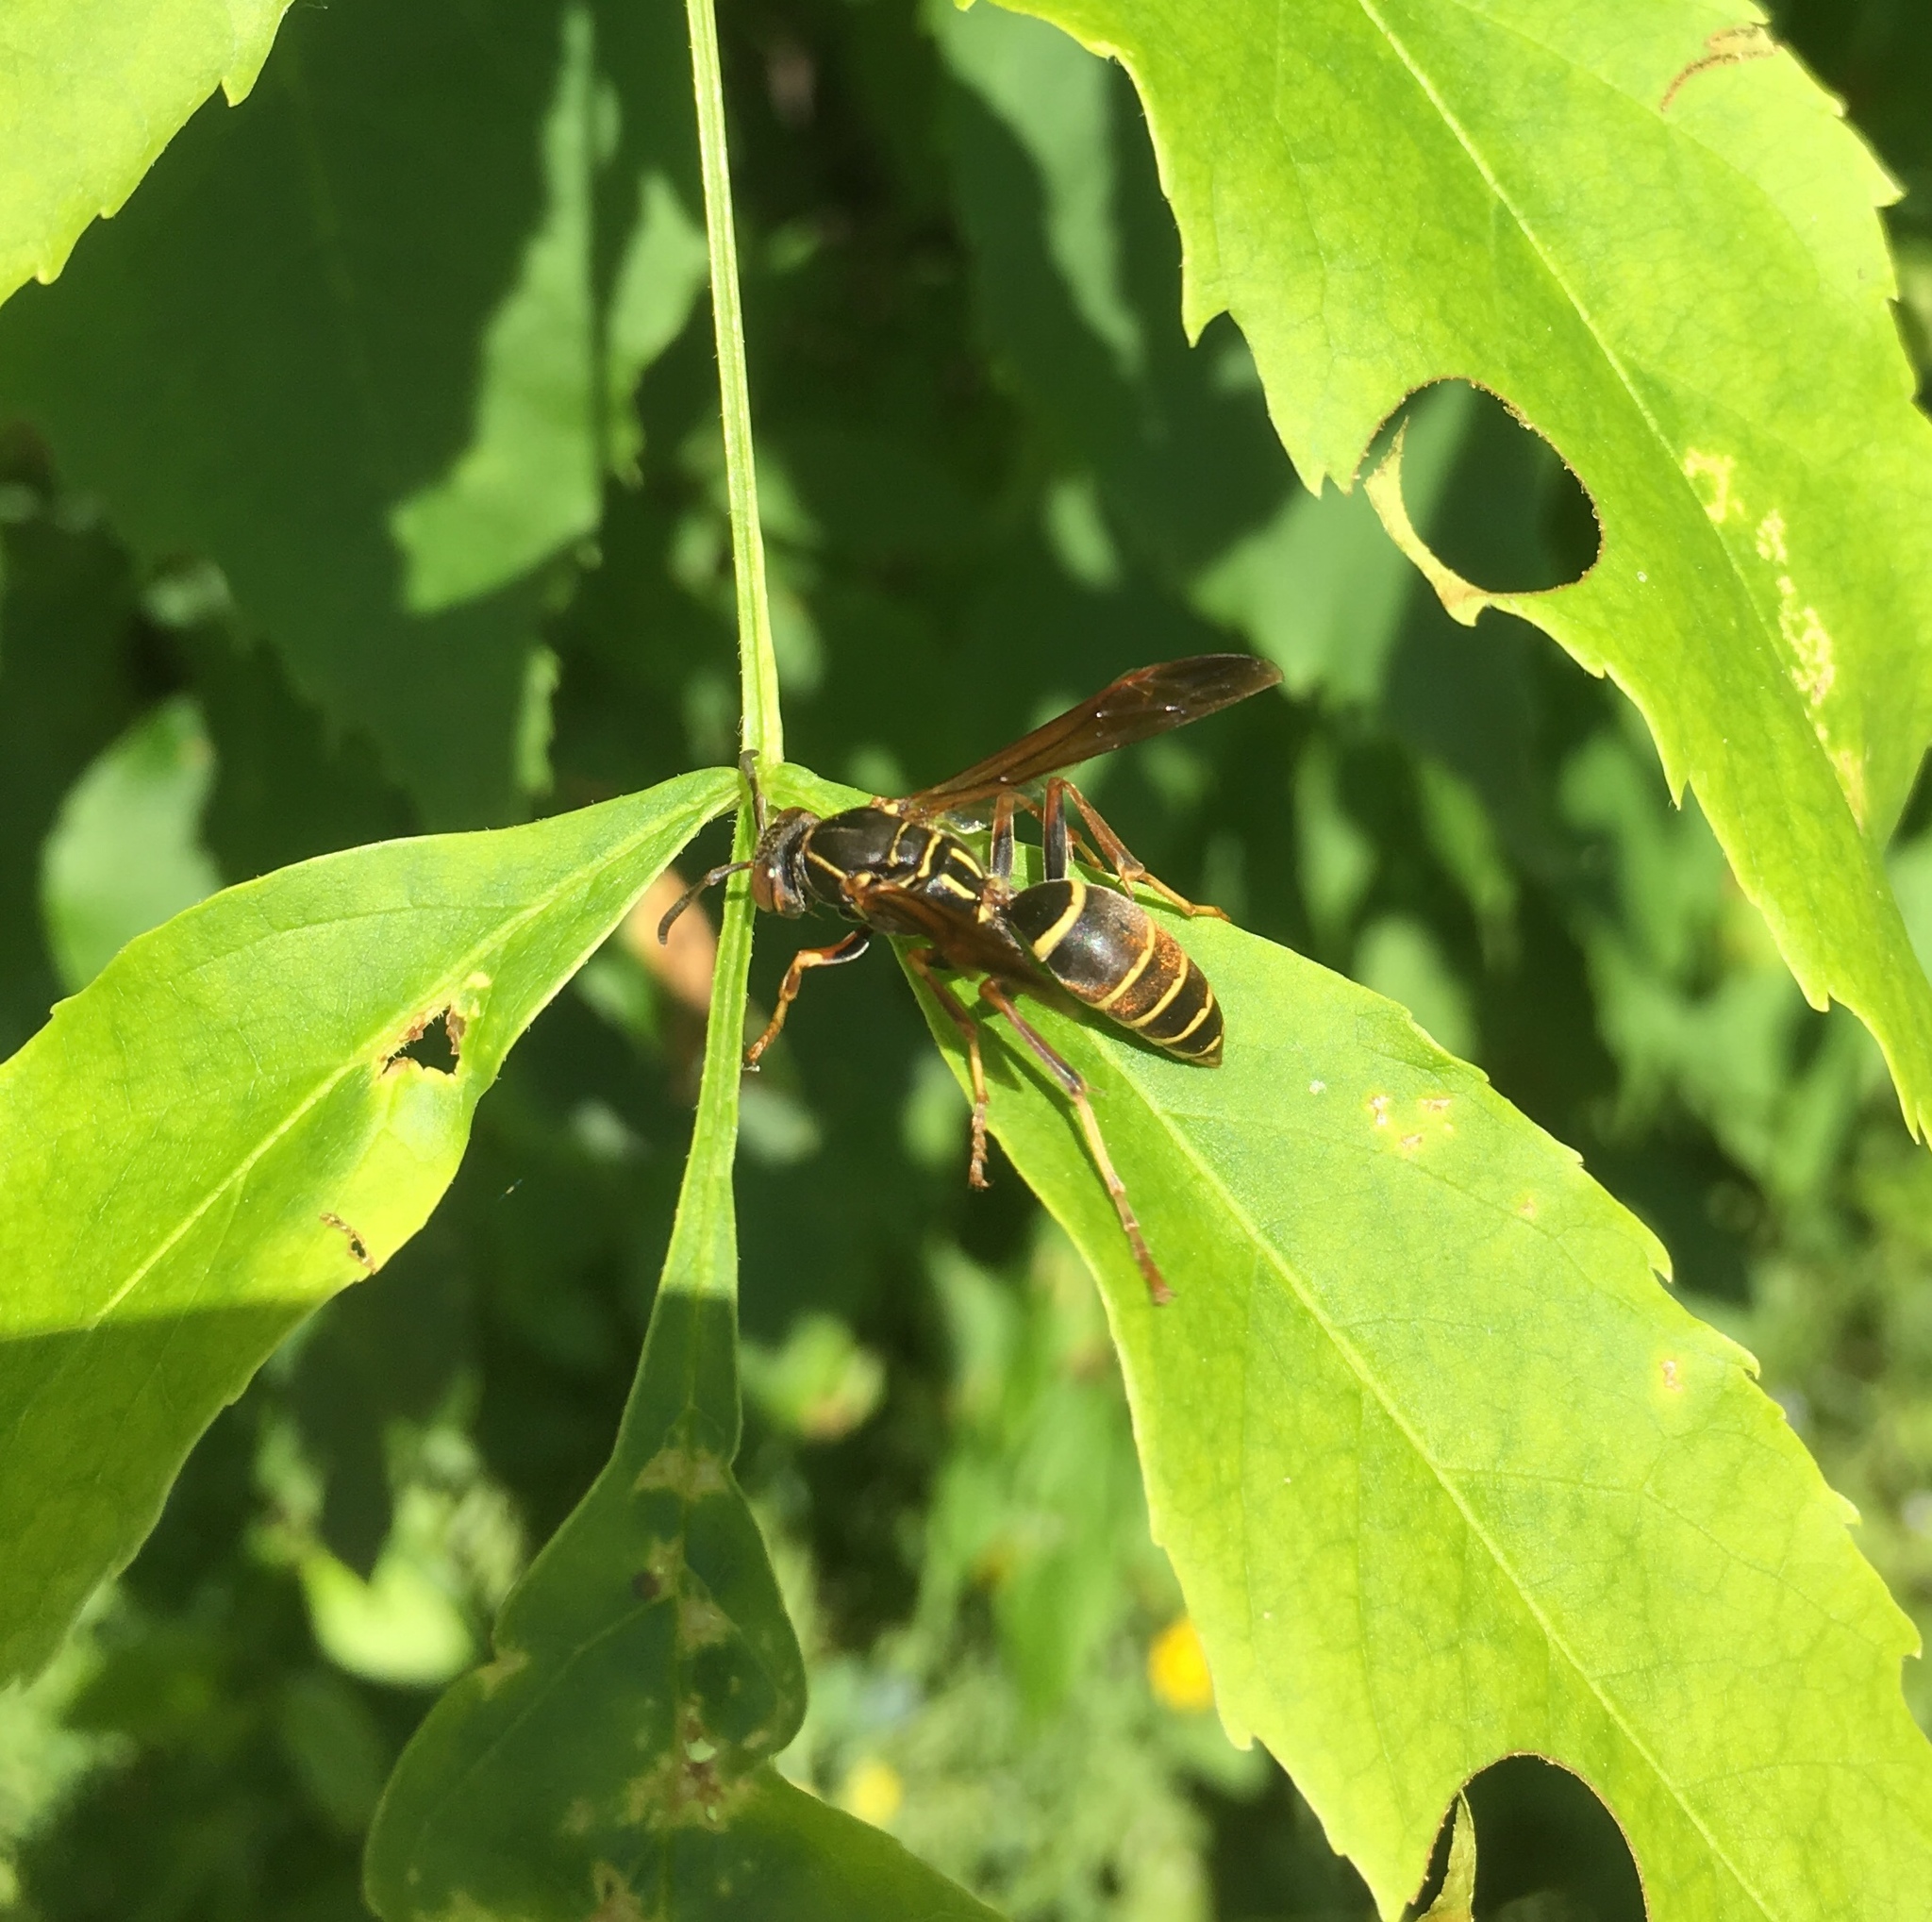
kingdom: Animalia
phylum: Arthropoda
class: Insecta
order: Hymenoptera
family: Eumenidae
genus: Polistes
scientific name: Polistes fuscatus
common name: Dark paper wasp
